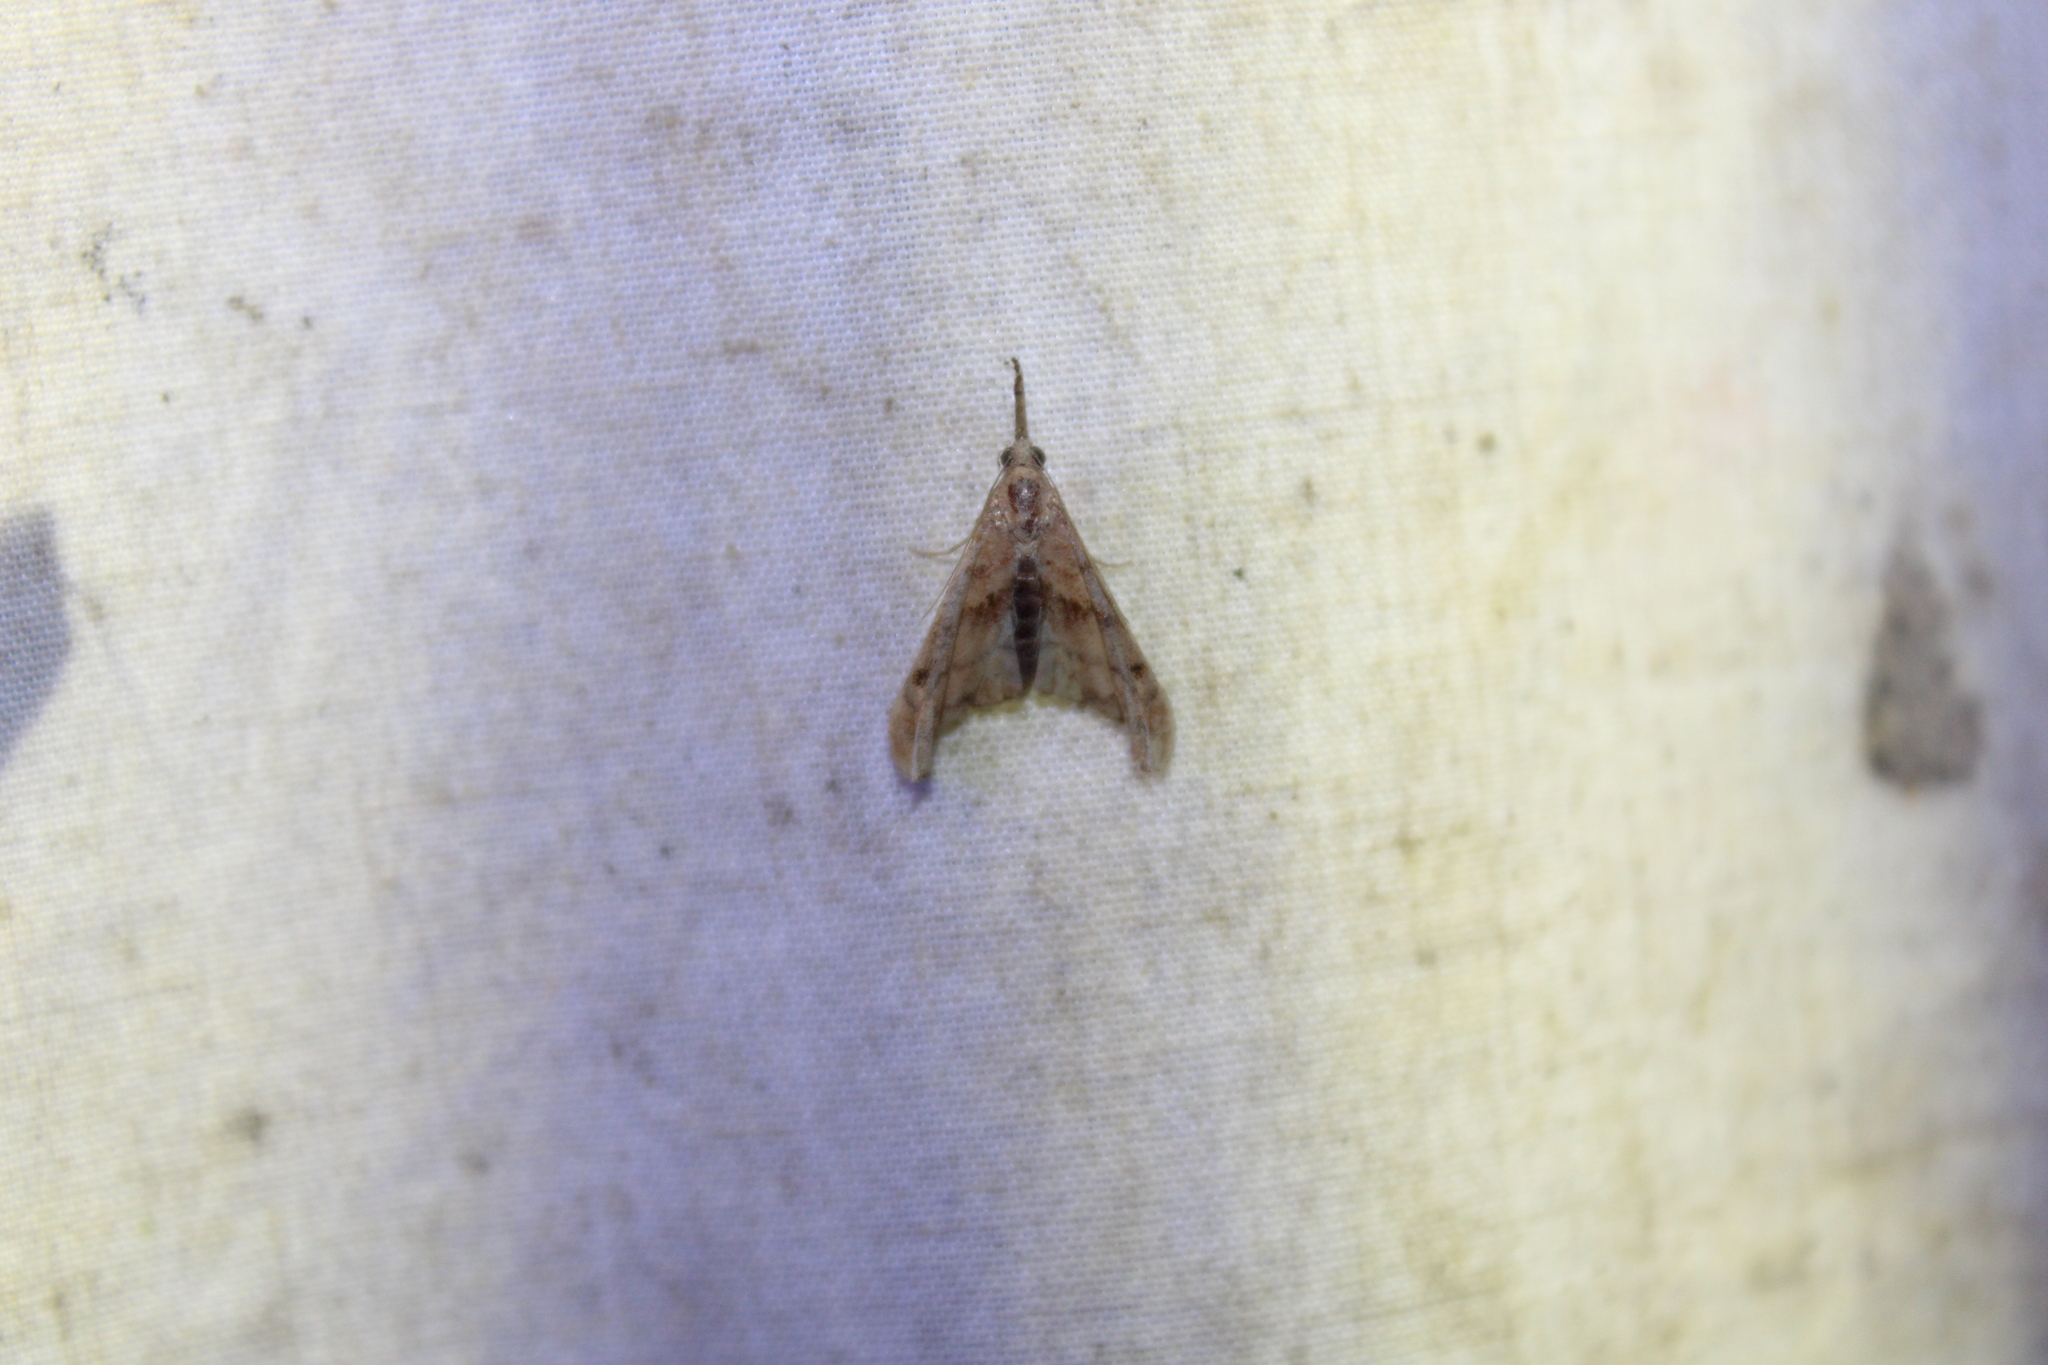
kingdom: Animalia
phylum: Arthropoda
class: Insecta
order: Lepidoptera
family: Erebidae
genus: Palthis
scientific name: Palthis angulalis
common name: Dark-spotted palthis moth
